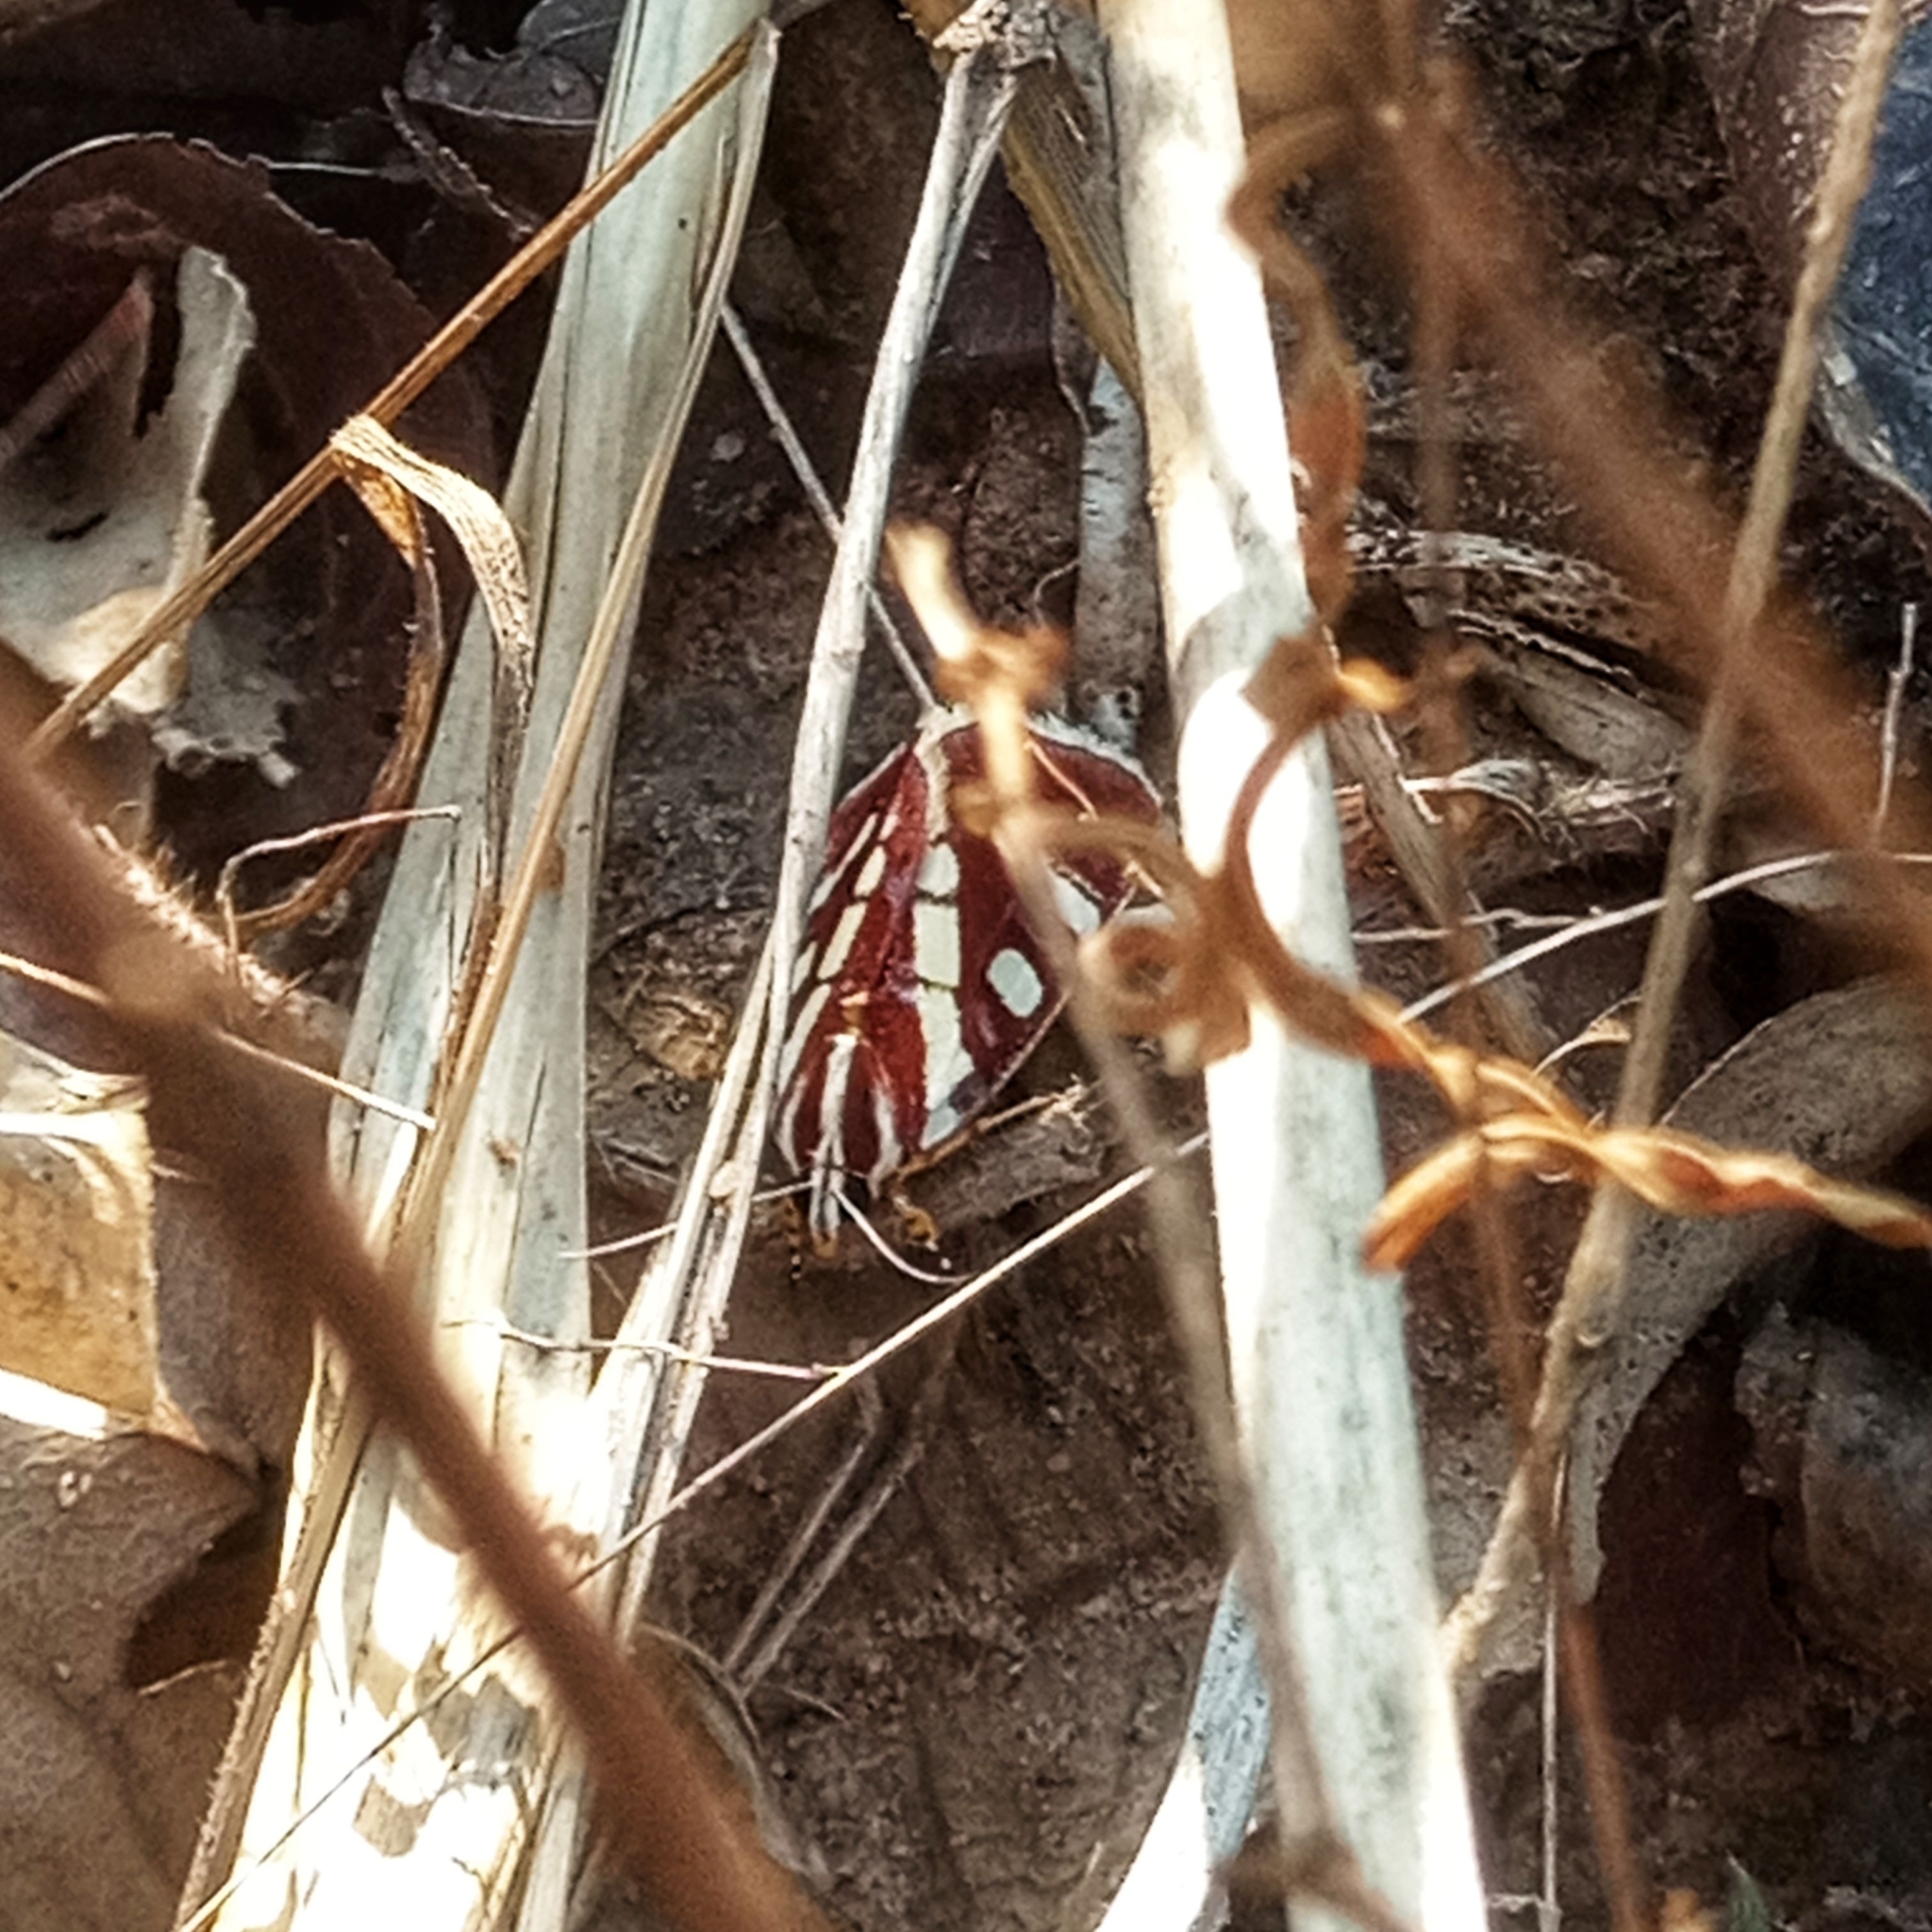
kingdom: Animalia
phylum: Arthropoda
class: Insecta
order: Lepidoptera
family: Noctuidae
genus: Mitrophrys
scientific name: Mitrophrys menete
